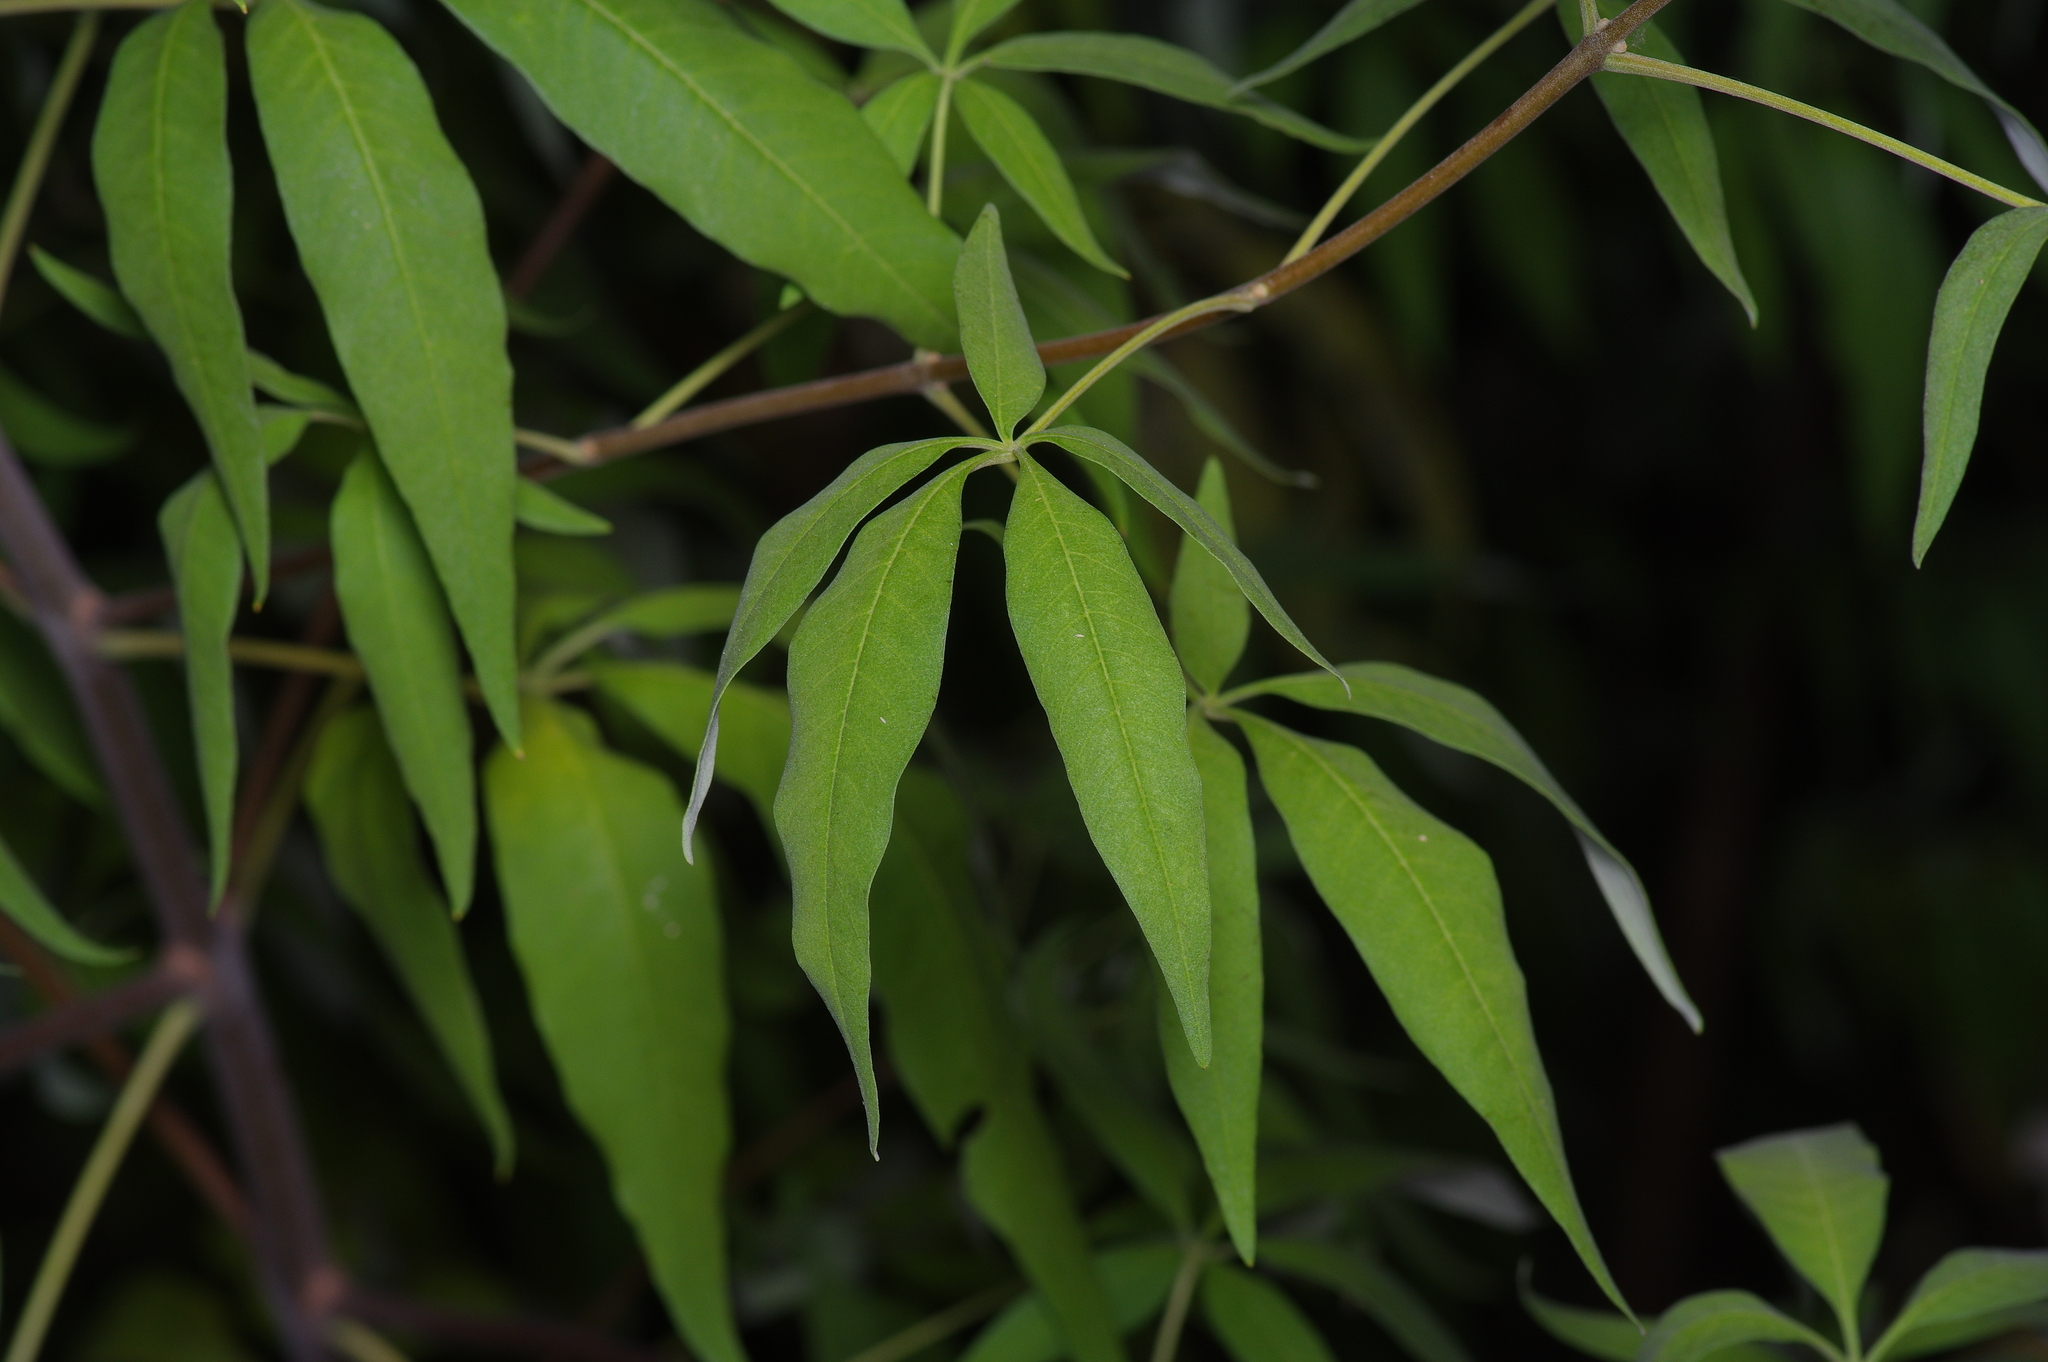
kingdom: Plantae
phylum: Tracheophyta
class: Magnoliopsida
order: Lamiales
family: Lamiaceae
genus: Vitex
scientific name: Vitex agnus-castus
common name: Chasteberry
